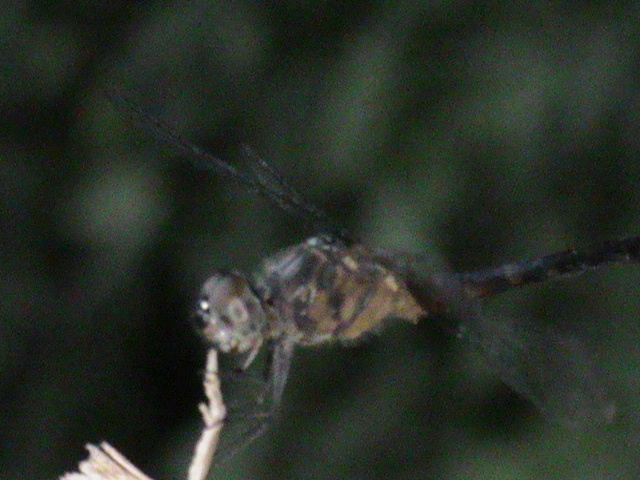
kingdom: Animalia
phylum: Arthropoda
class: Insecta
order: Odonata
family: Libellulidae
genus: Brachydiplax
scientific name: Brachydiplax chalybea
